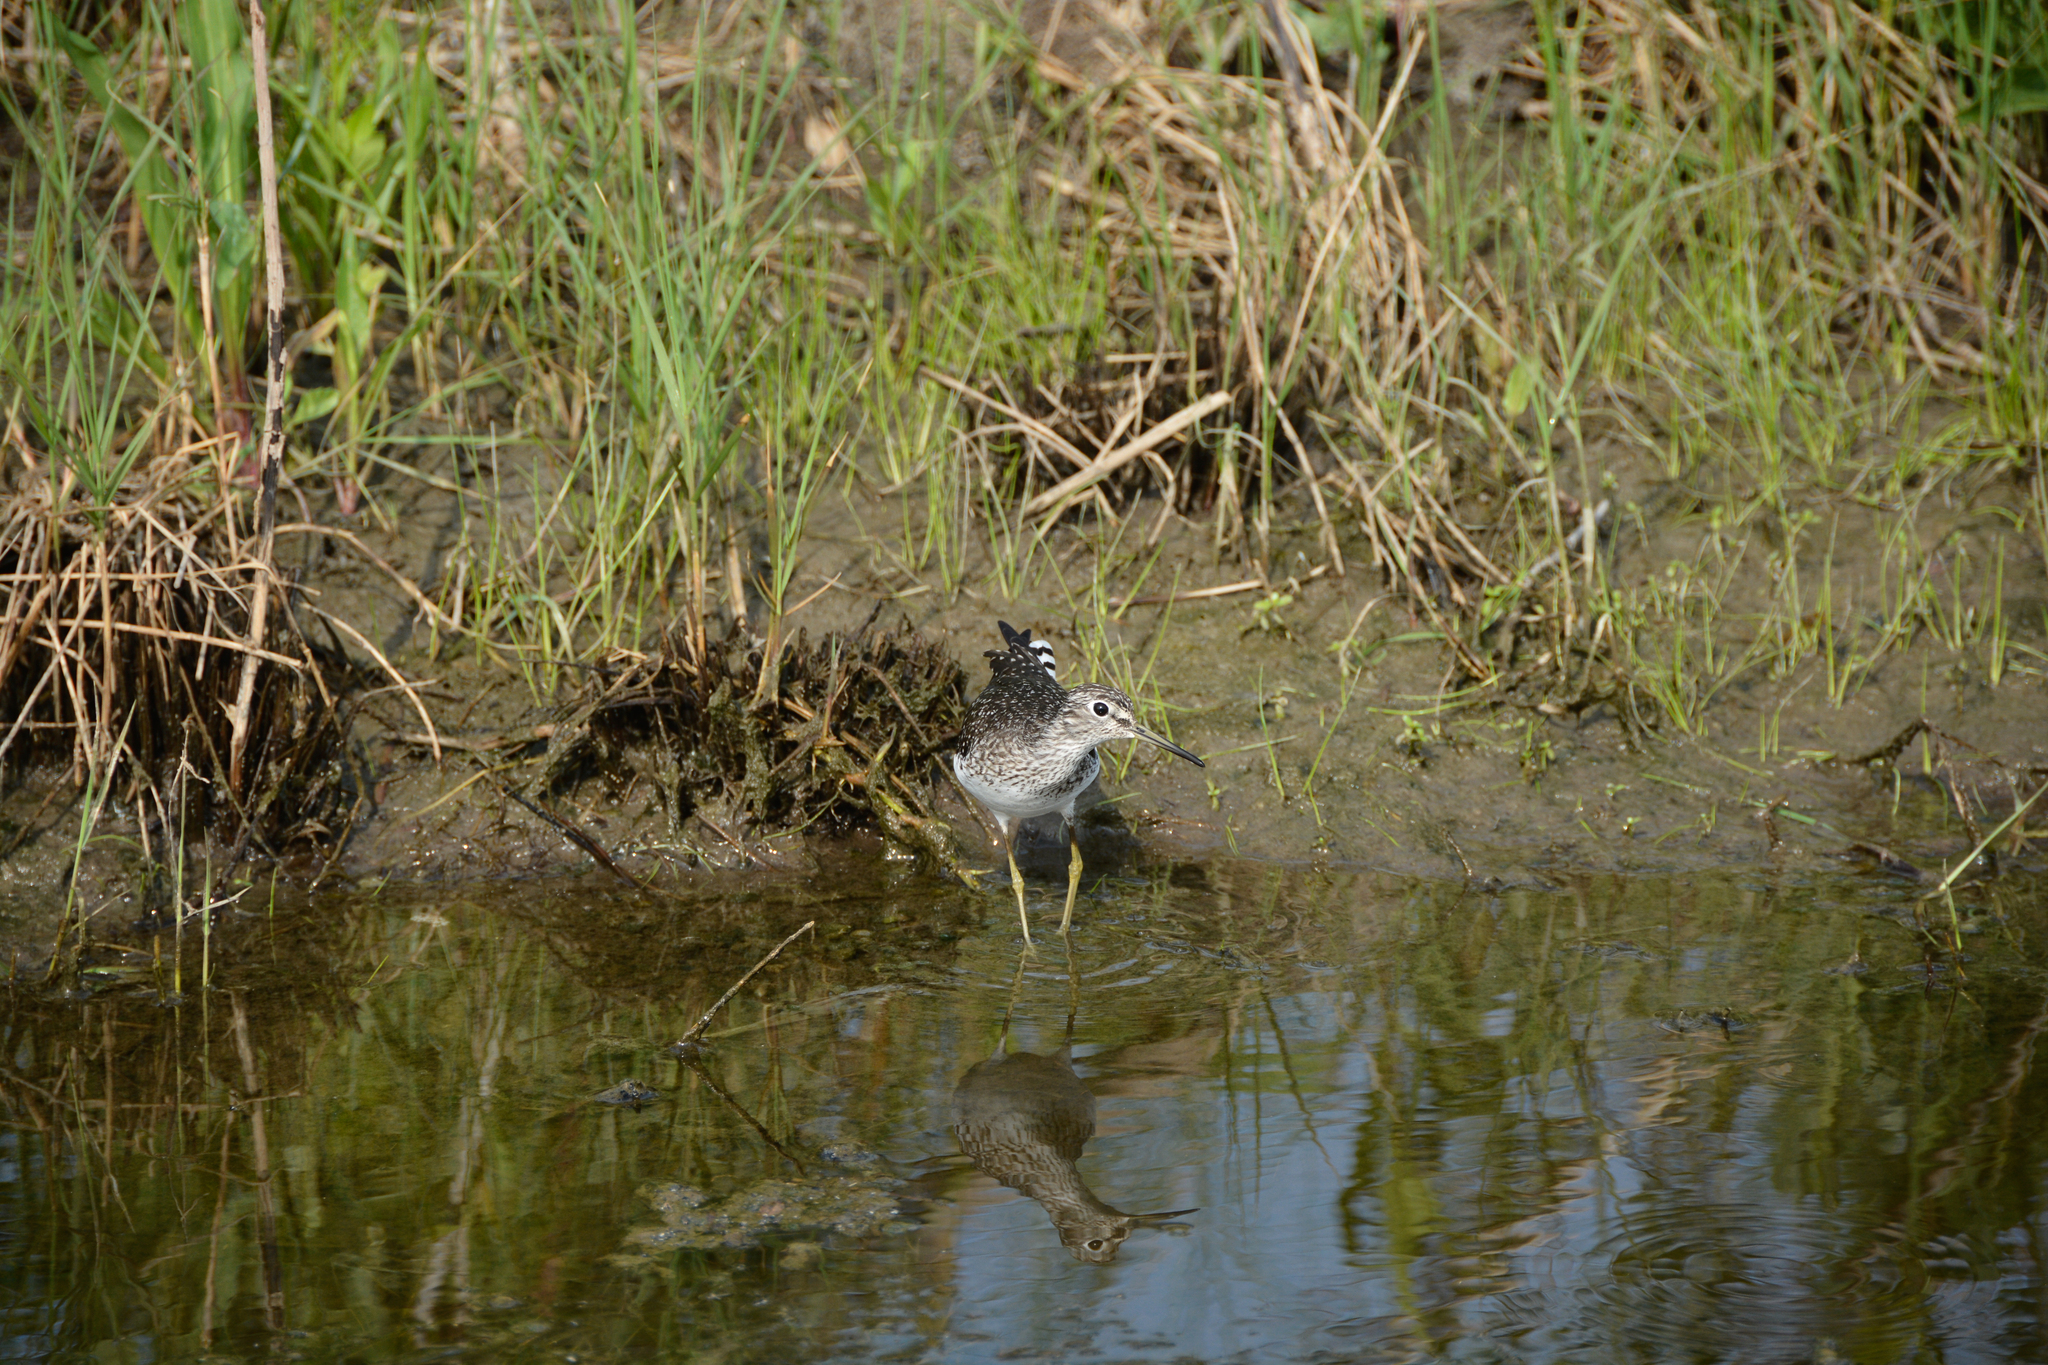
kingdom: Animalia
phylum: Chordata
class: Aves
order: Charadriiformes
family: Scolopacidae
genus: Tringa
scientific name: Tringa flavipes
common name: Lesser yellowlegs
